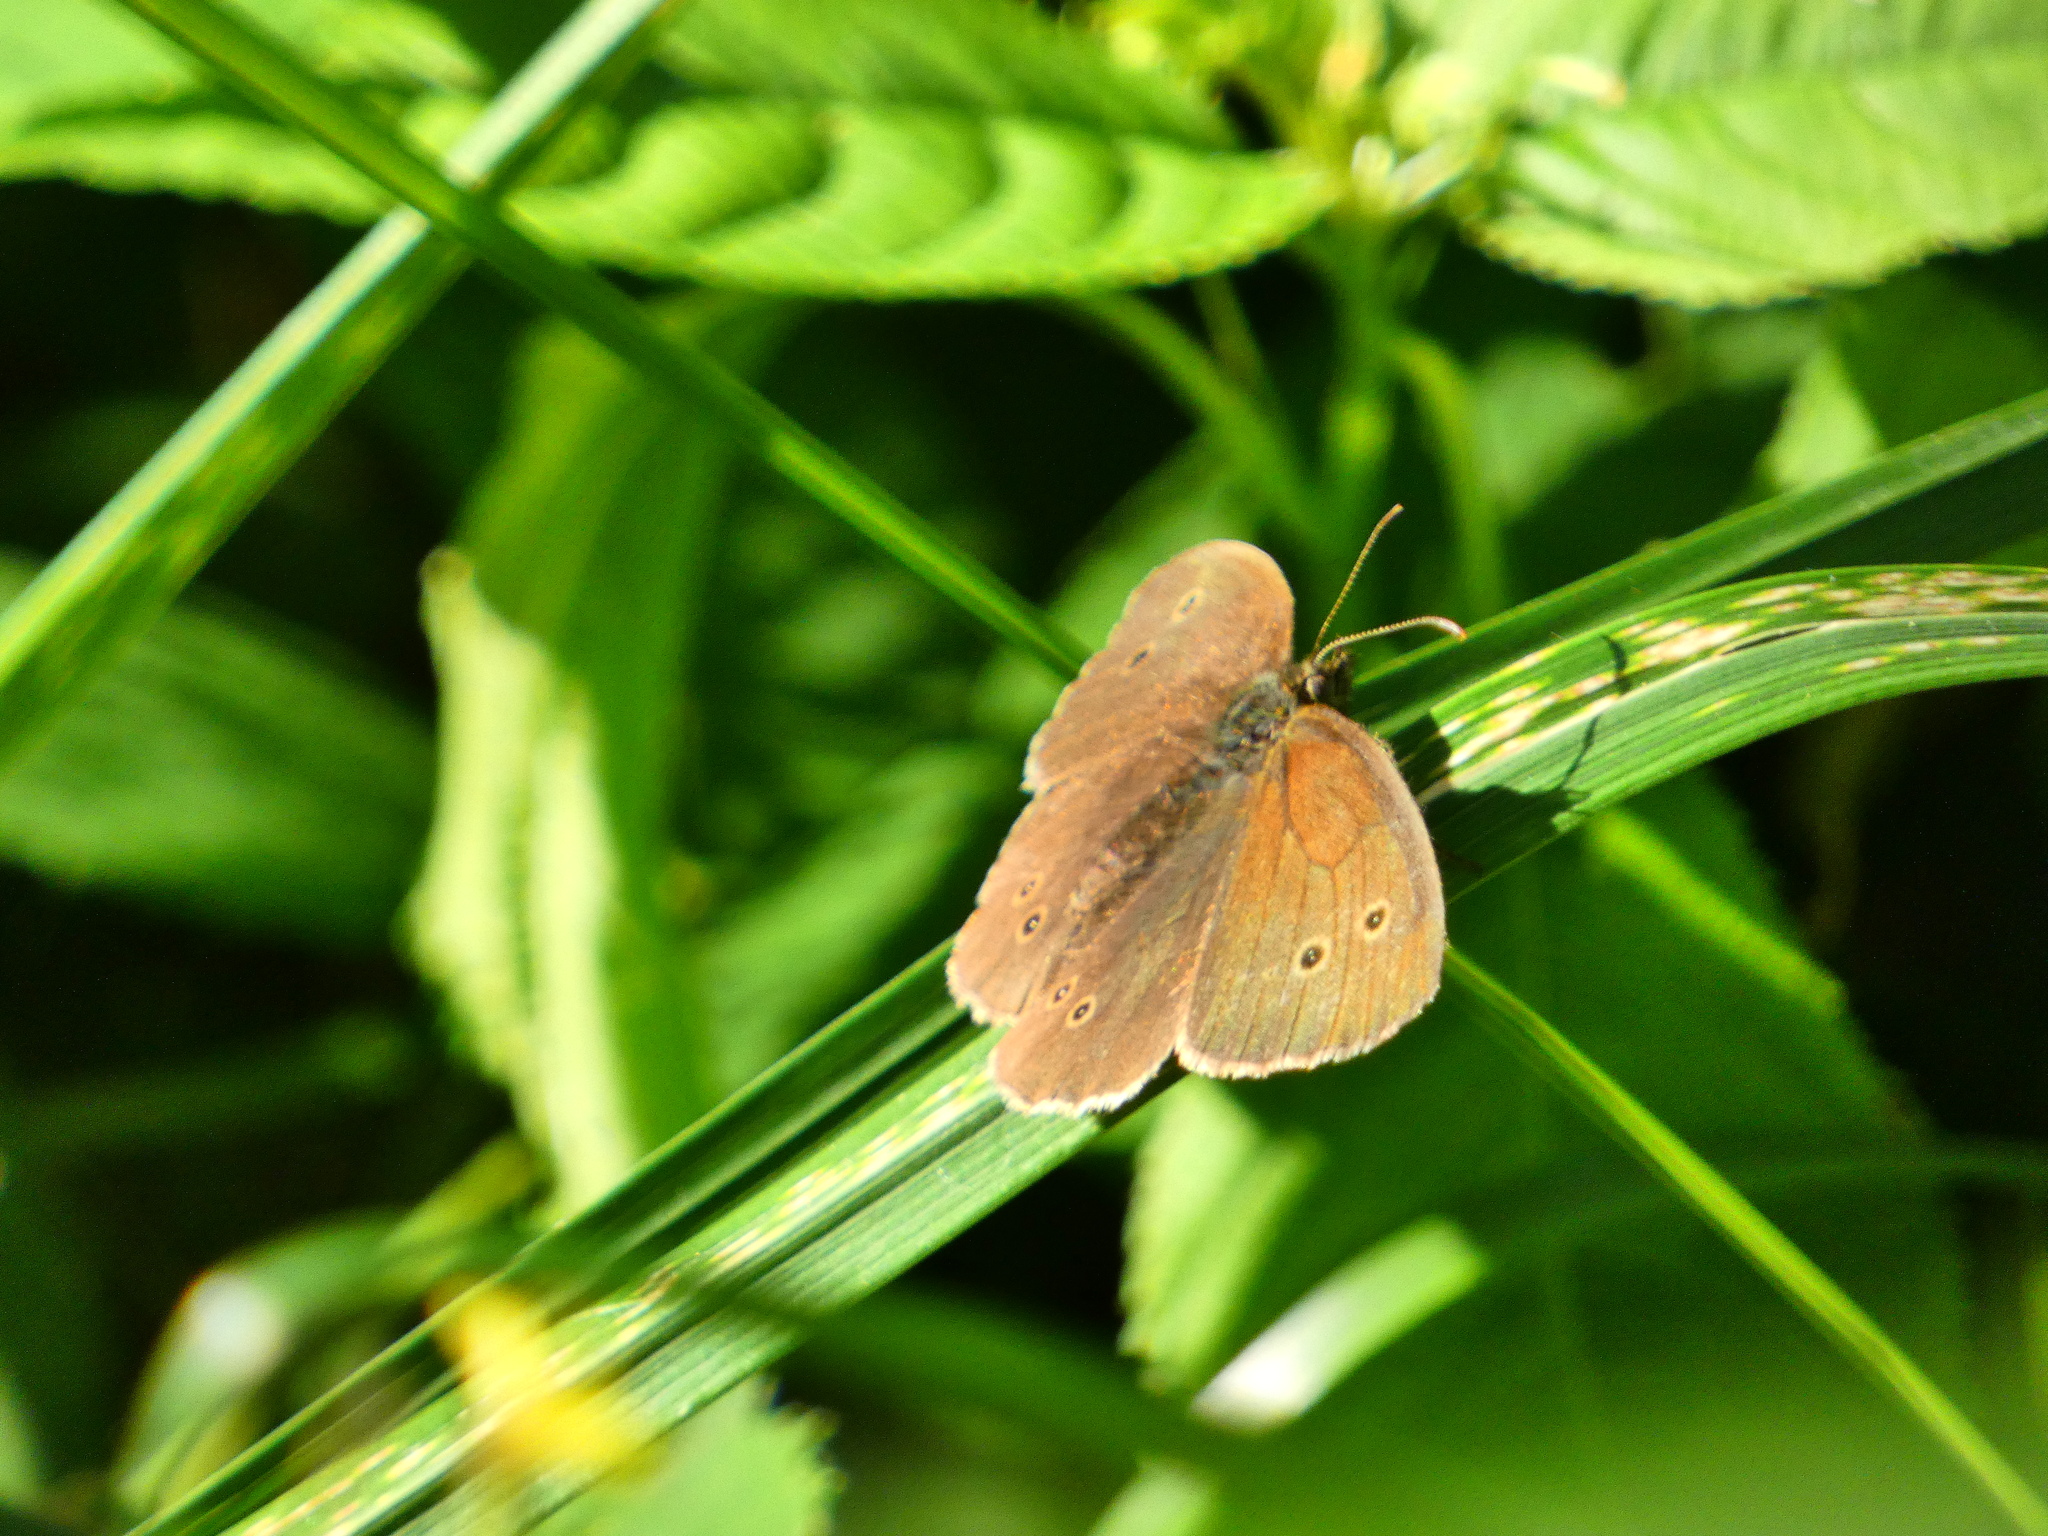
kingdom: Animalia
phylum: Arthropoda
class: Insecta
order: Lepidoptera
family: Nymphalidae
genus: Aphantopus
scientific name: Aphantopus hyperantus
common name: Ringlet
